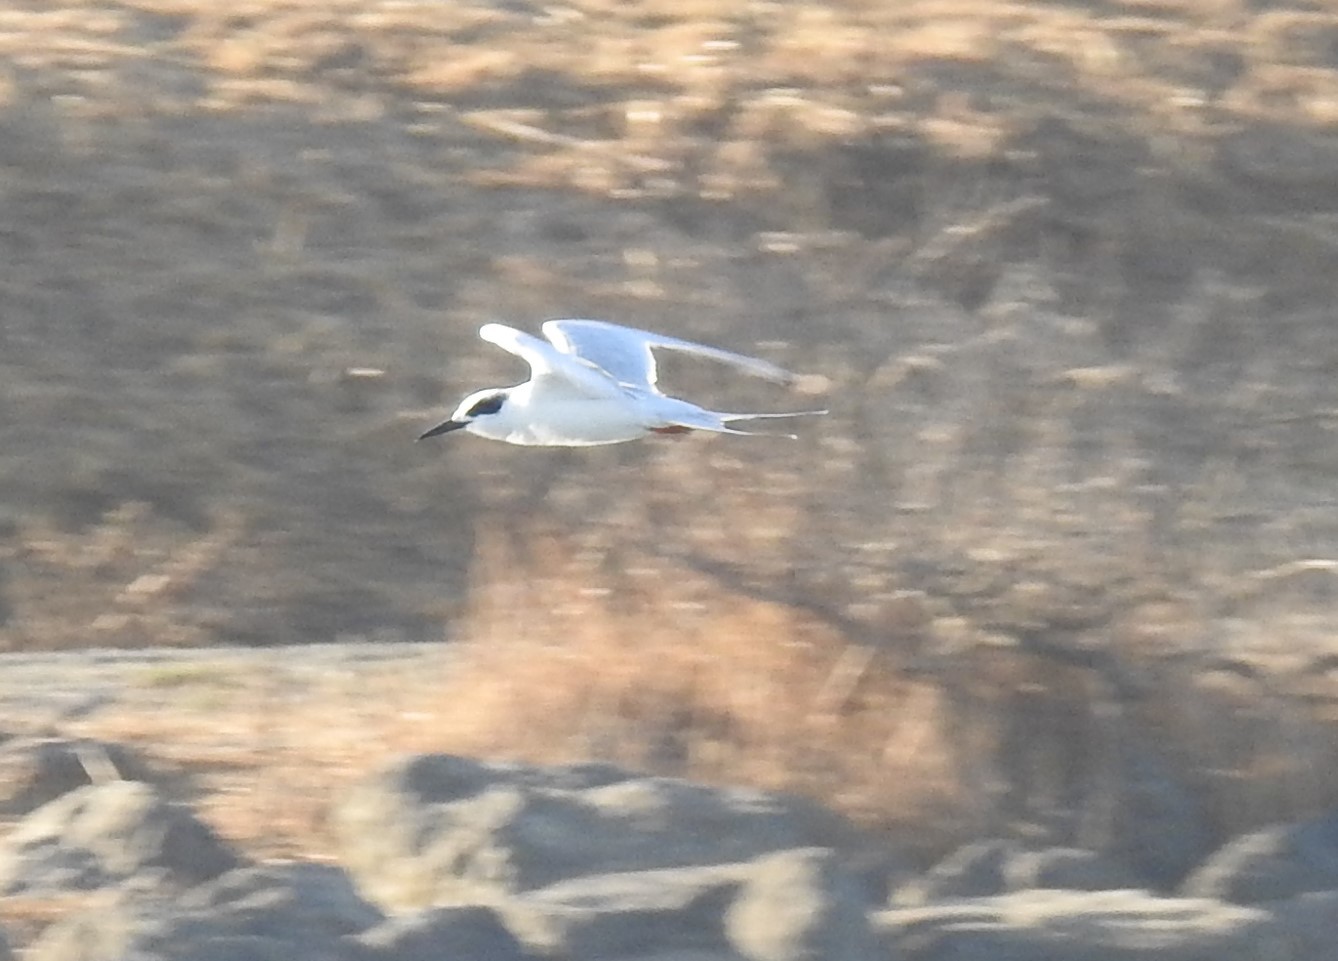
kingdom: Animalia
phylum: Chordata
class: Aves
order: Charadriiformes
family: Laridae
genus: Sterna
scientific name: Sterna forsteri
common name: Forster's tern
